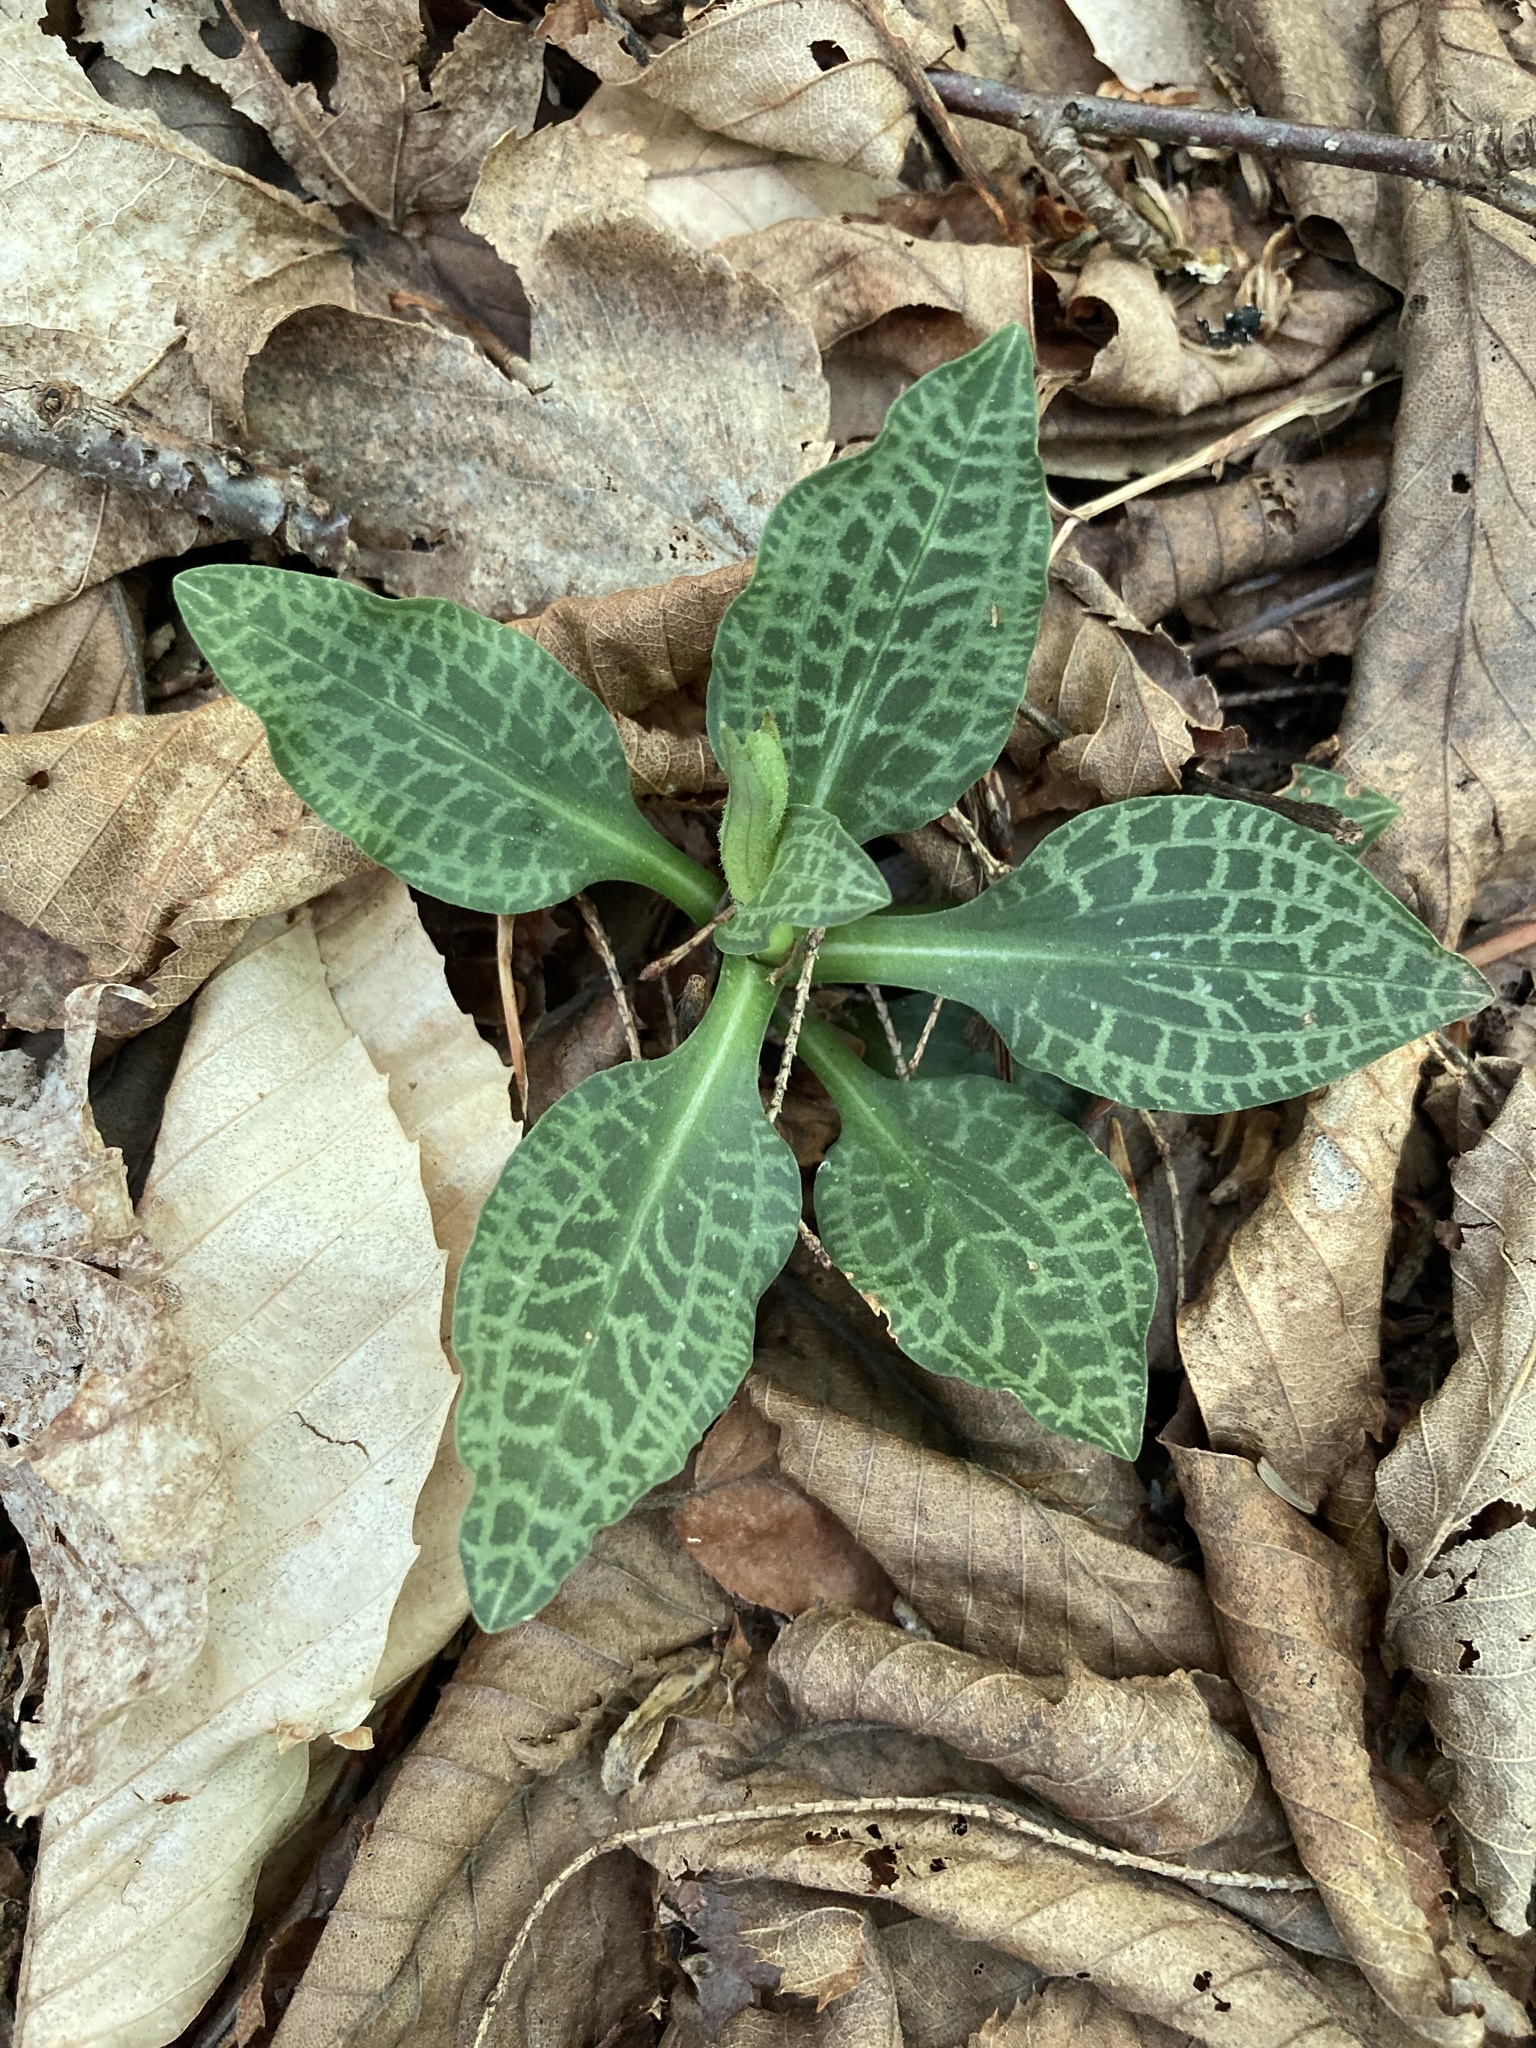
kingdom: Plantae
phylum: Tracheophyta
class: Liliopsida
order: Asparagales
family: Orchidaceae
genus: Goodyera
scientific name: Goodyera tesselata
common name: Checkered rattlesnake-plantain
